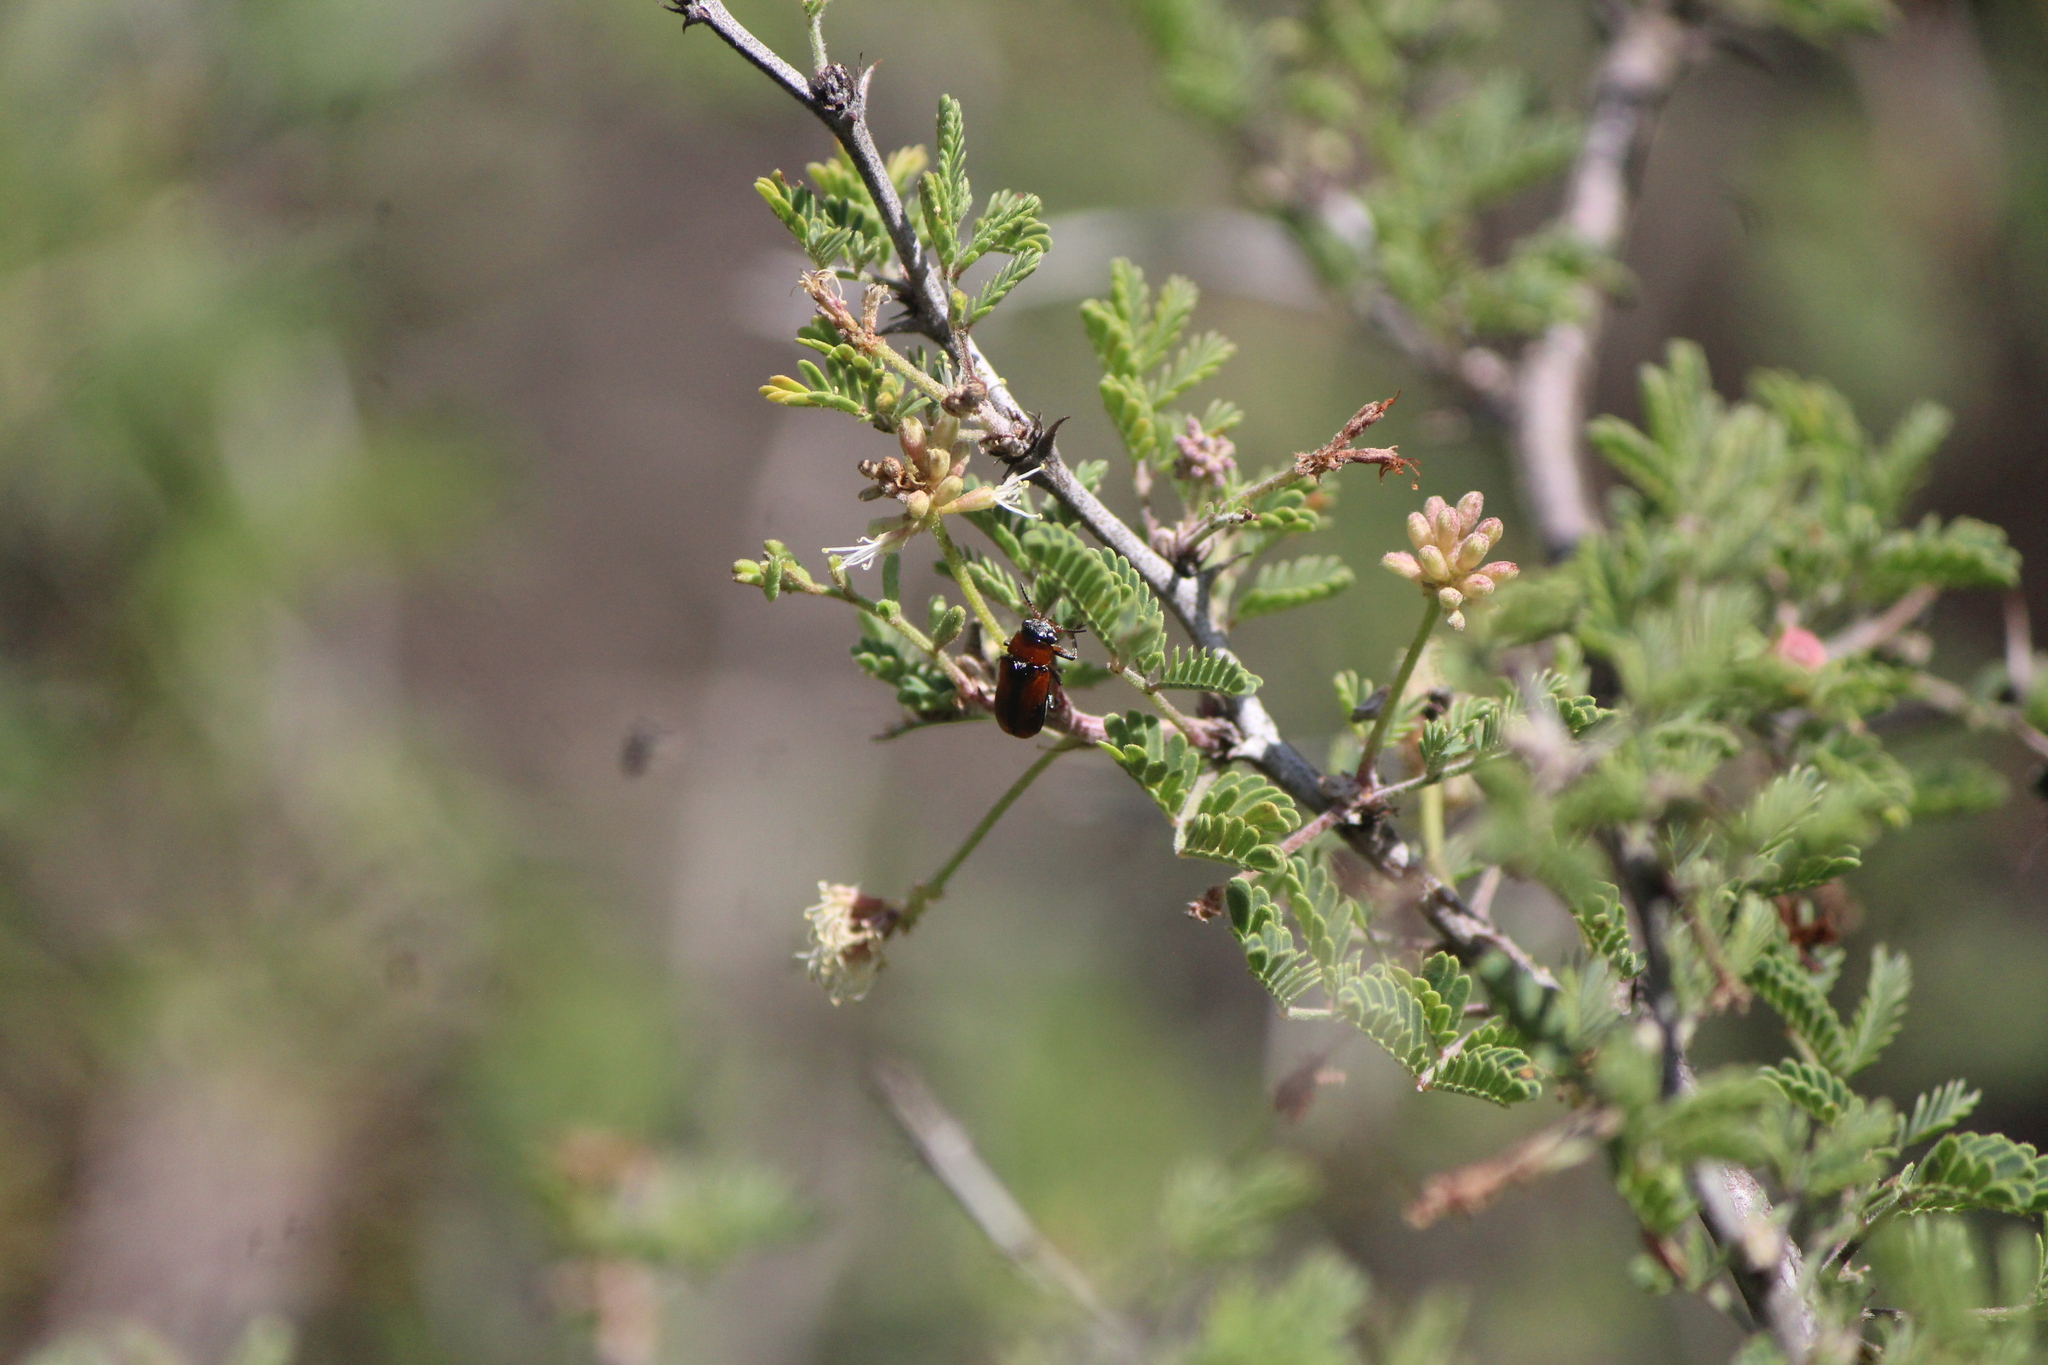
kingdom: Animalia
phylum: Arthropoda
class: Insecta
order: Coleoptera
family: Chrysomelidae
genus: Anomoea
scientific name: Anomoea rufifrons
